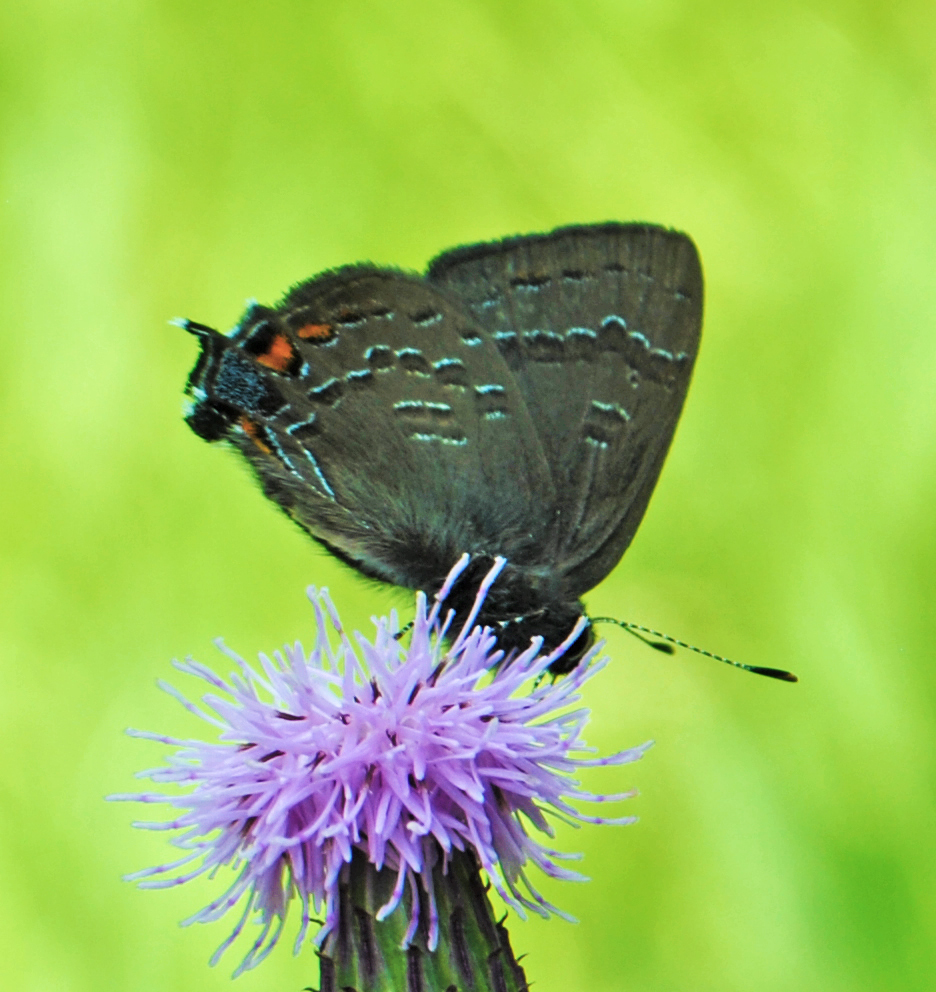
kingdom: Animalia
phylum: Arthropoda
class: Insecta
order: Lepidoptera
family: Lycaenidae
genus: Satyrium
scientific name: Satyrium calanus
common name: Banded hairstreak
